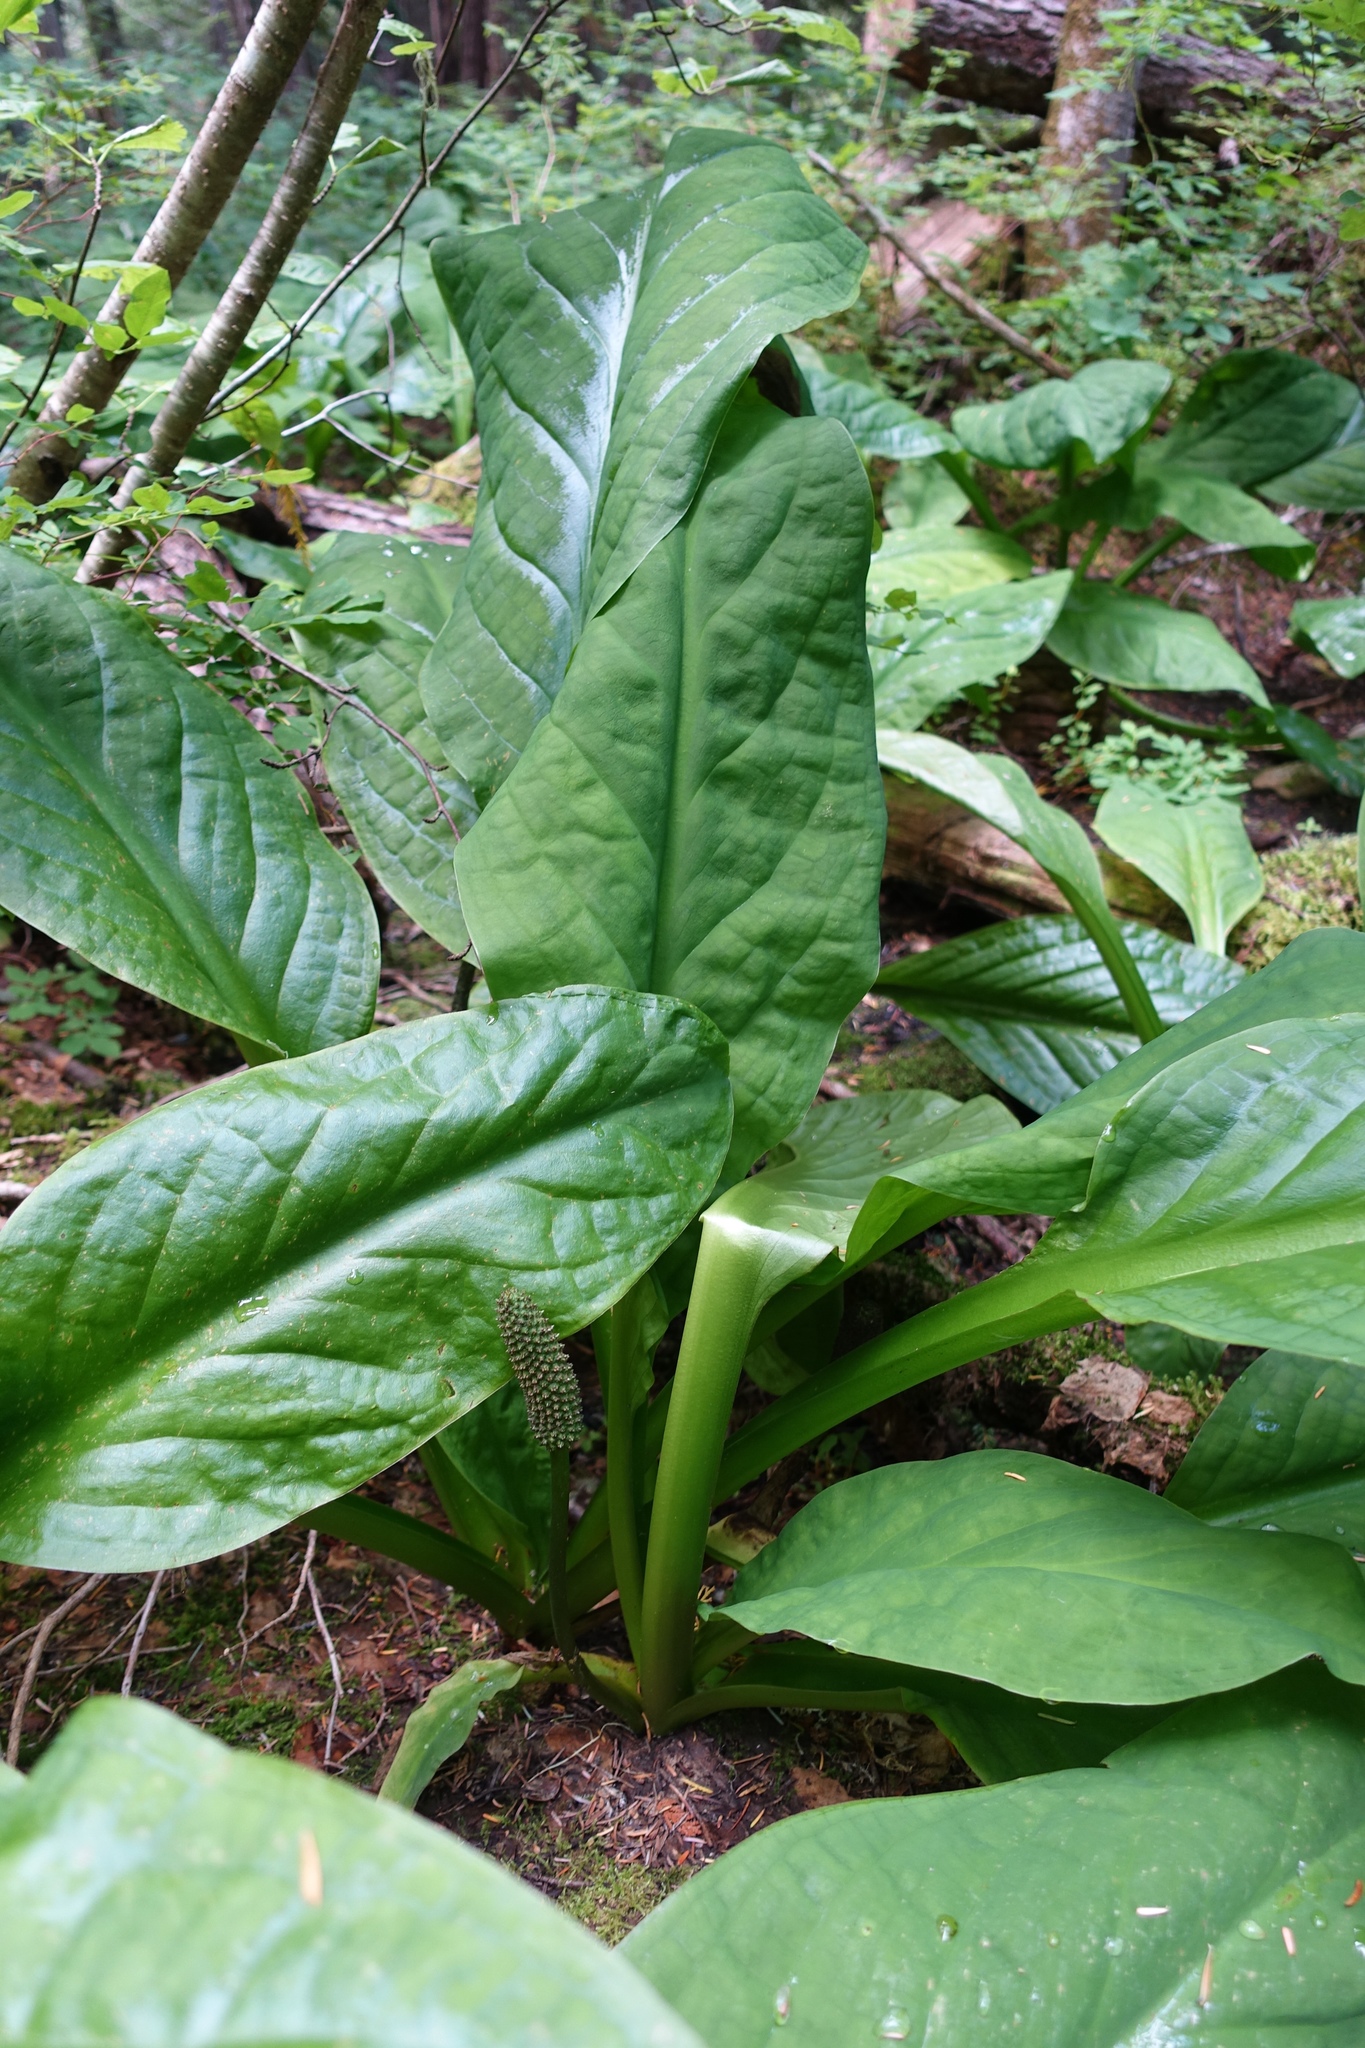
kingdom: Plantae
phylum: Tracheophyta
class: Liliopsida
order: Alismatales
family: Araceae
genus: Lysichiton
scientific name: Lysichiton americanus
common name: American skunk cabbage
